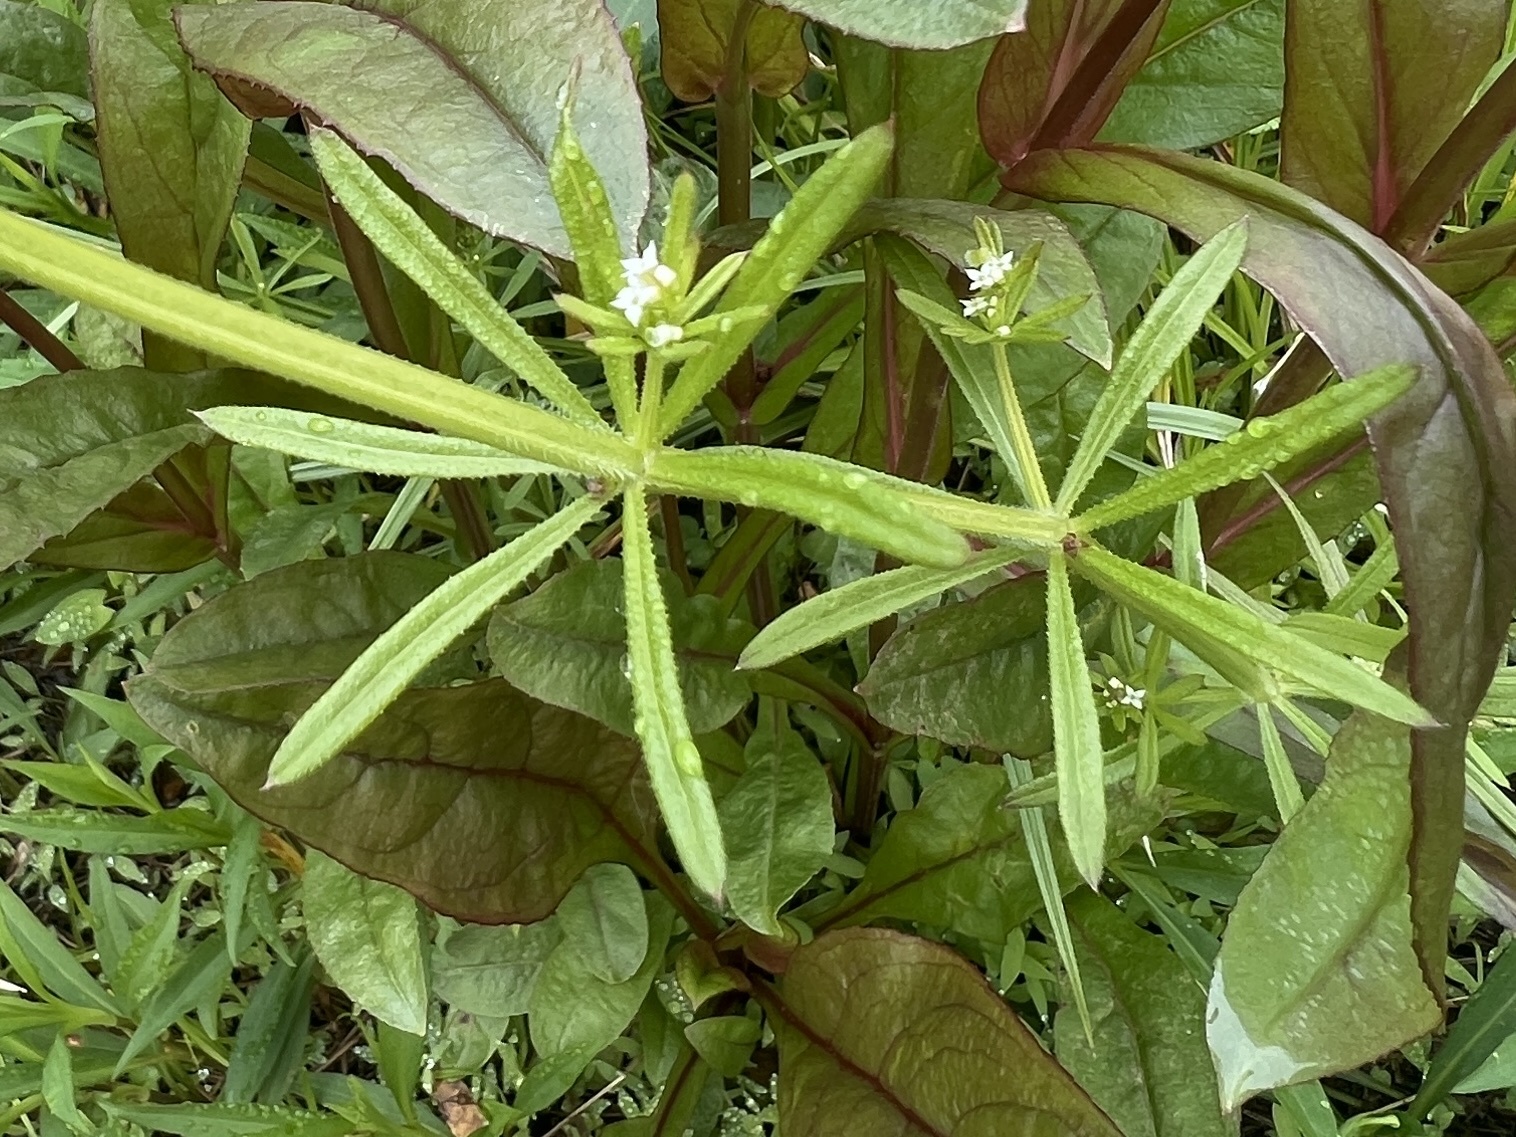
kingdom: Plantae
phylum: Tracheophyta
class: Magnoliopsida
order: Gentianales
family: Rubiaceae
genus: Galium
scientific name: Galium aparine
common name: Cleavers
